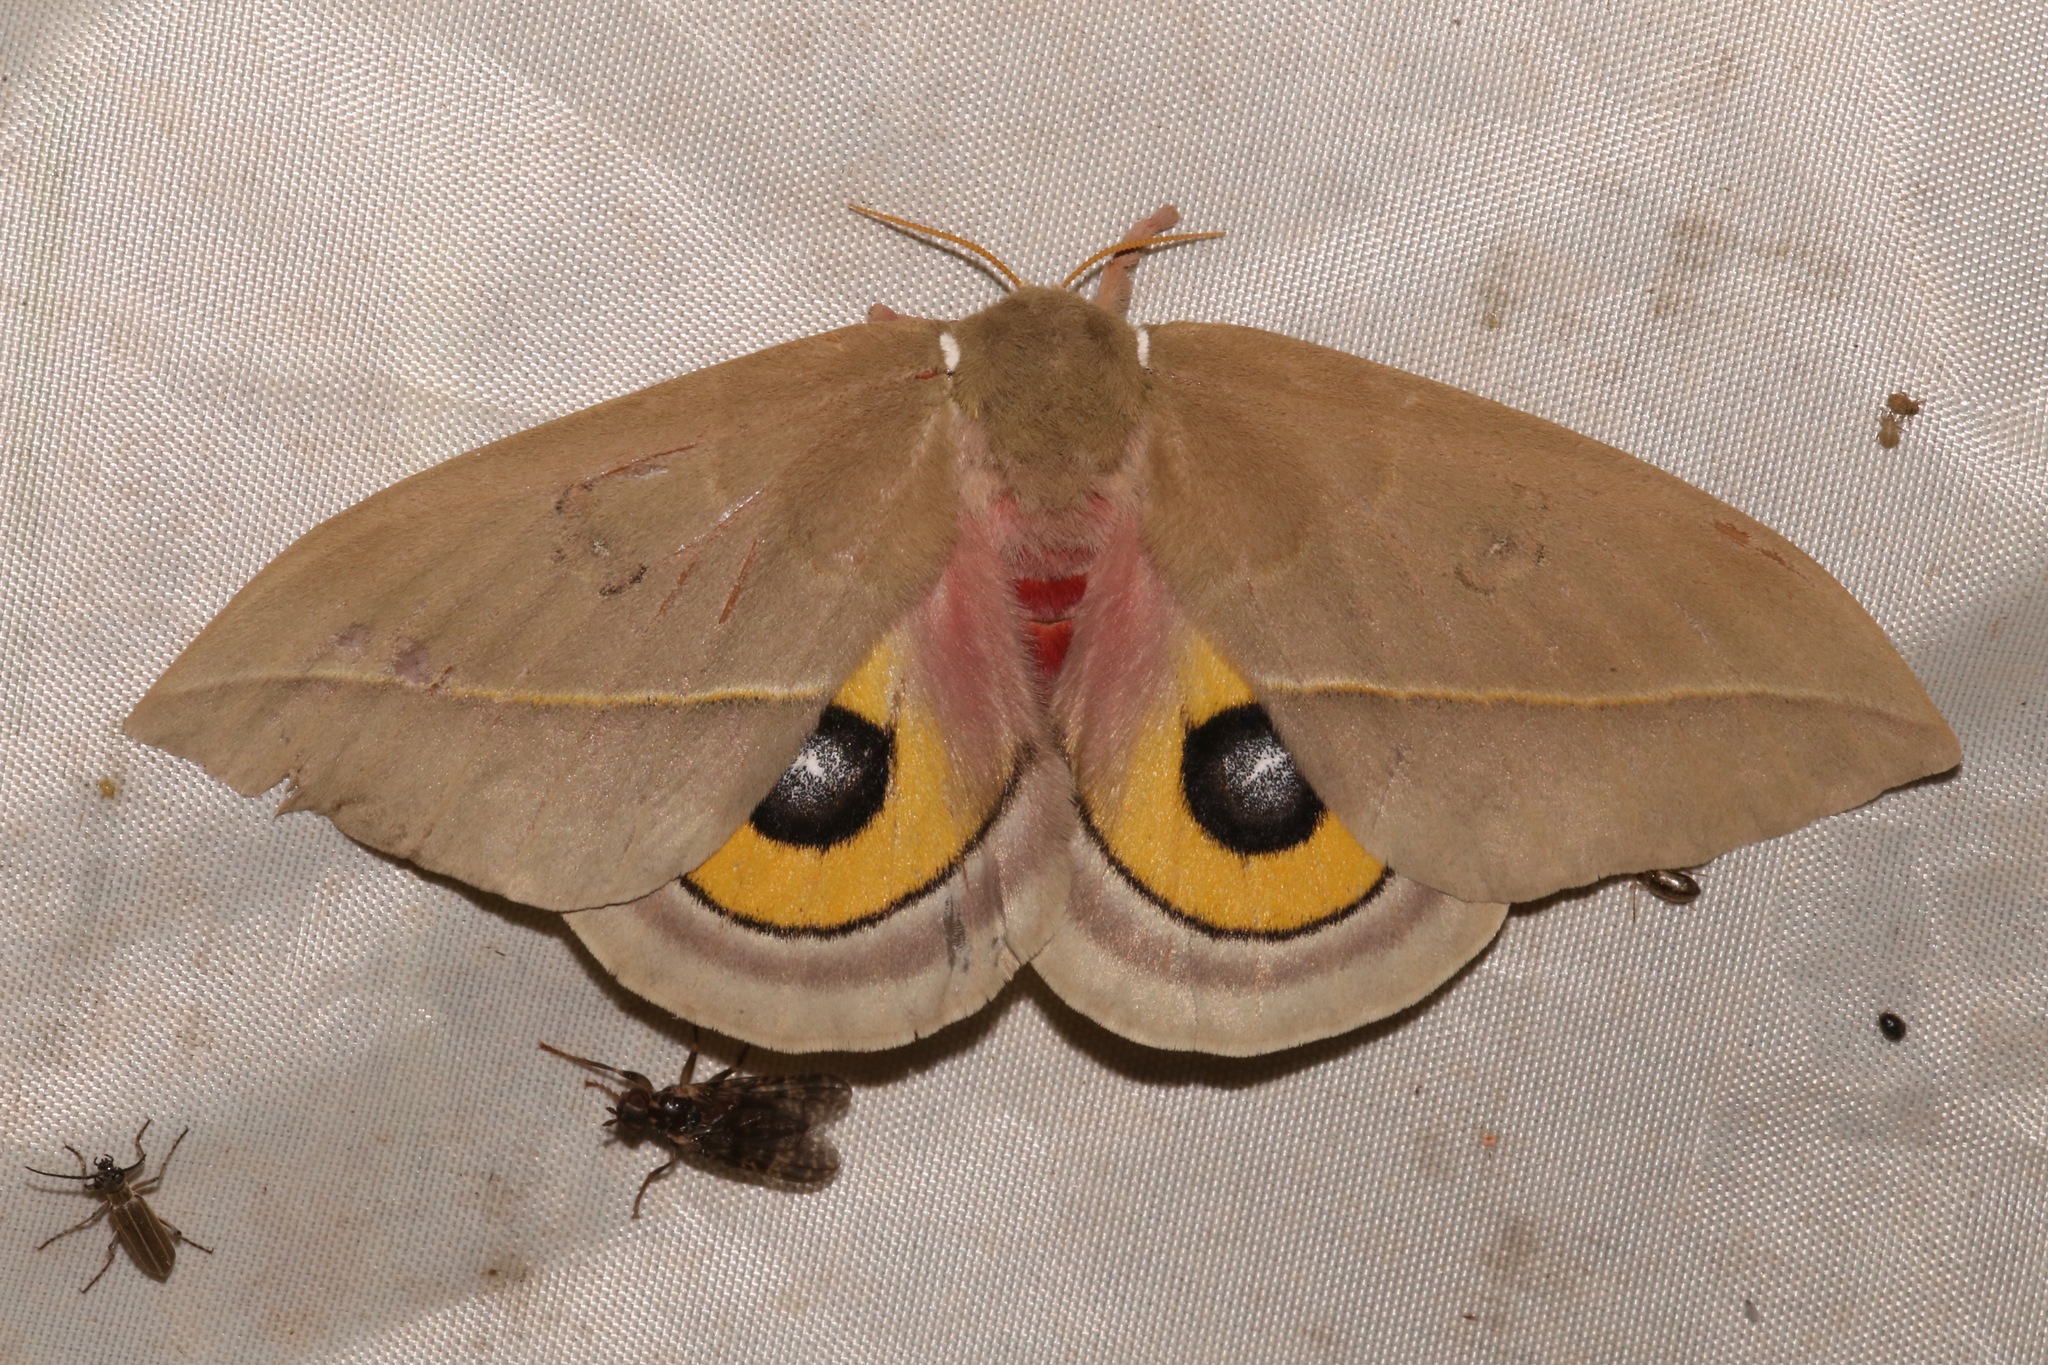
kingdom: Animalia
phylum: Arthropoda
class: Insecta
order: Lepidoptera
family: Saturniidae
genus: Automeris
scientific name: Automeris cecrops
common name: Cecrops eyed silkmoth
